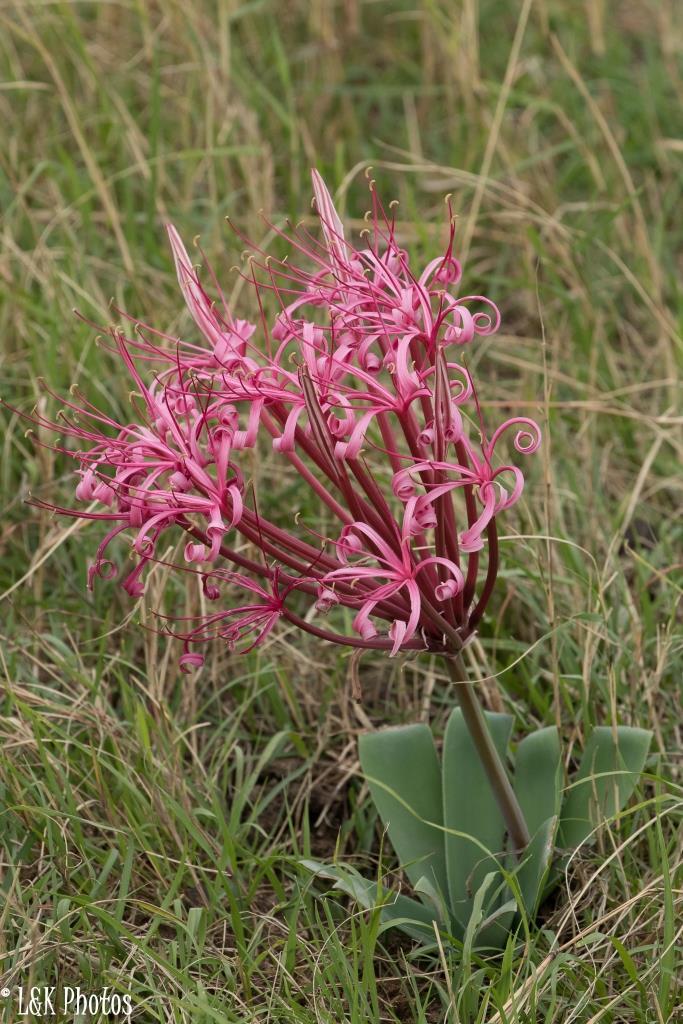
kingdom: Plantae
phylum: Tracheophyta
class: Liliopsida
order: Asparagales
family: Amaryllidaceae
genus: Ammocharis
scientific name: Ammocharis tinneana
